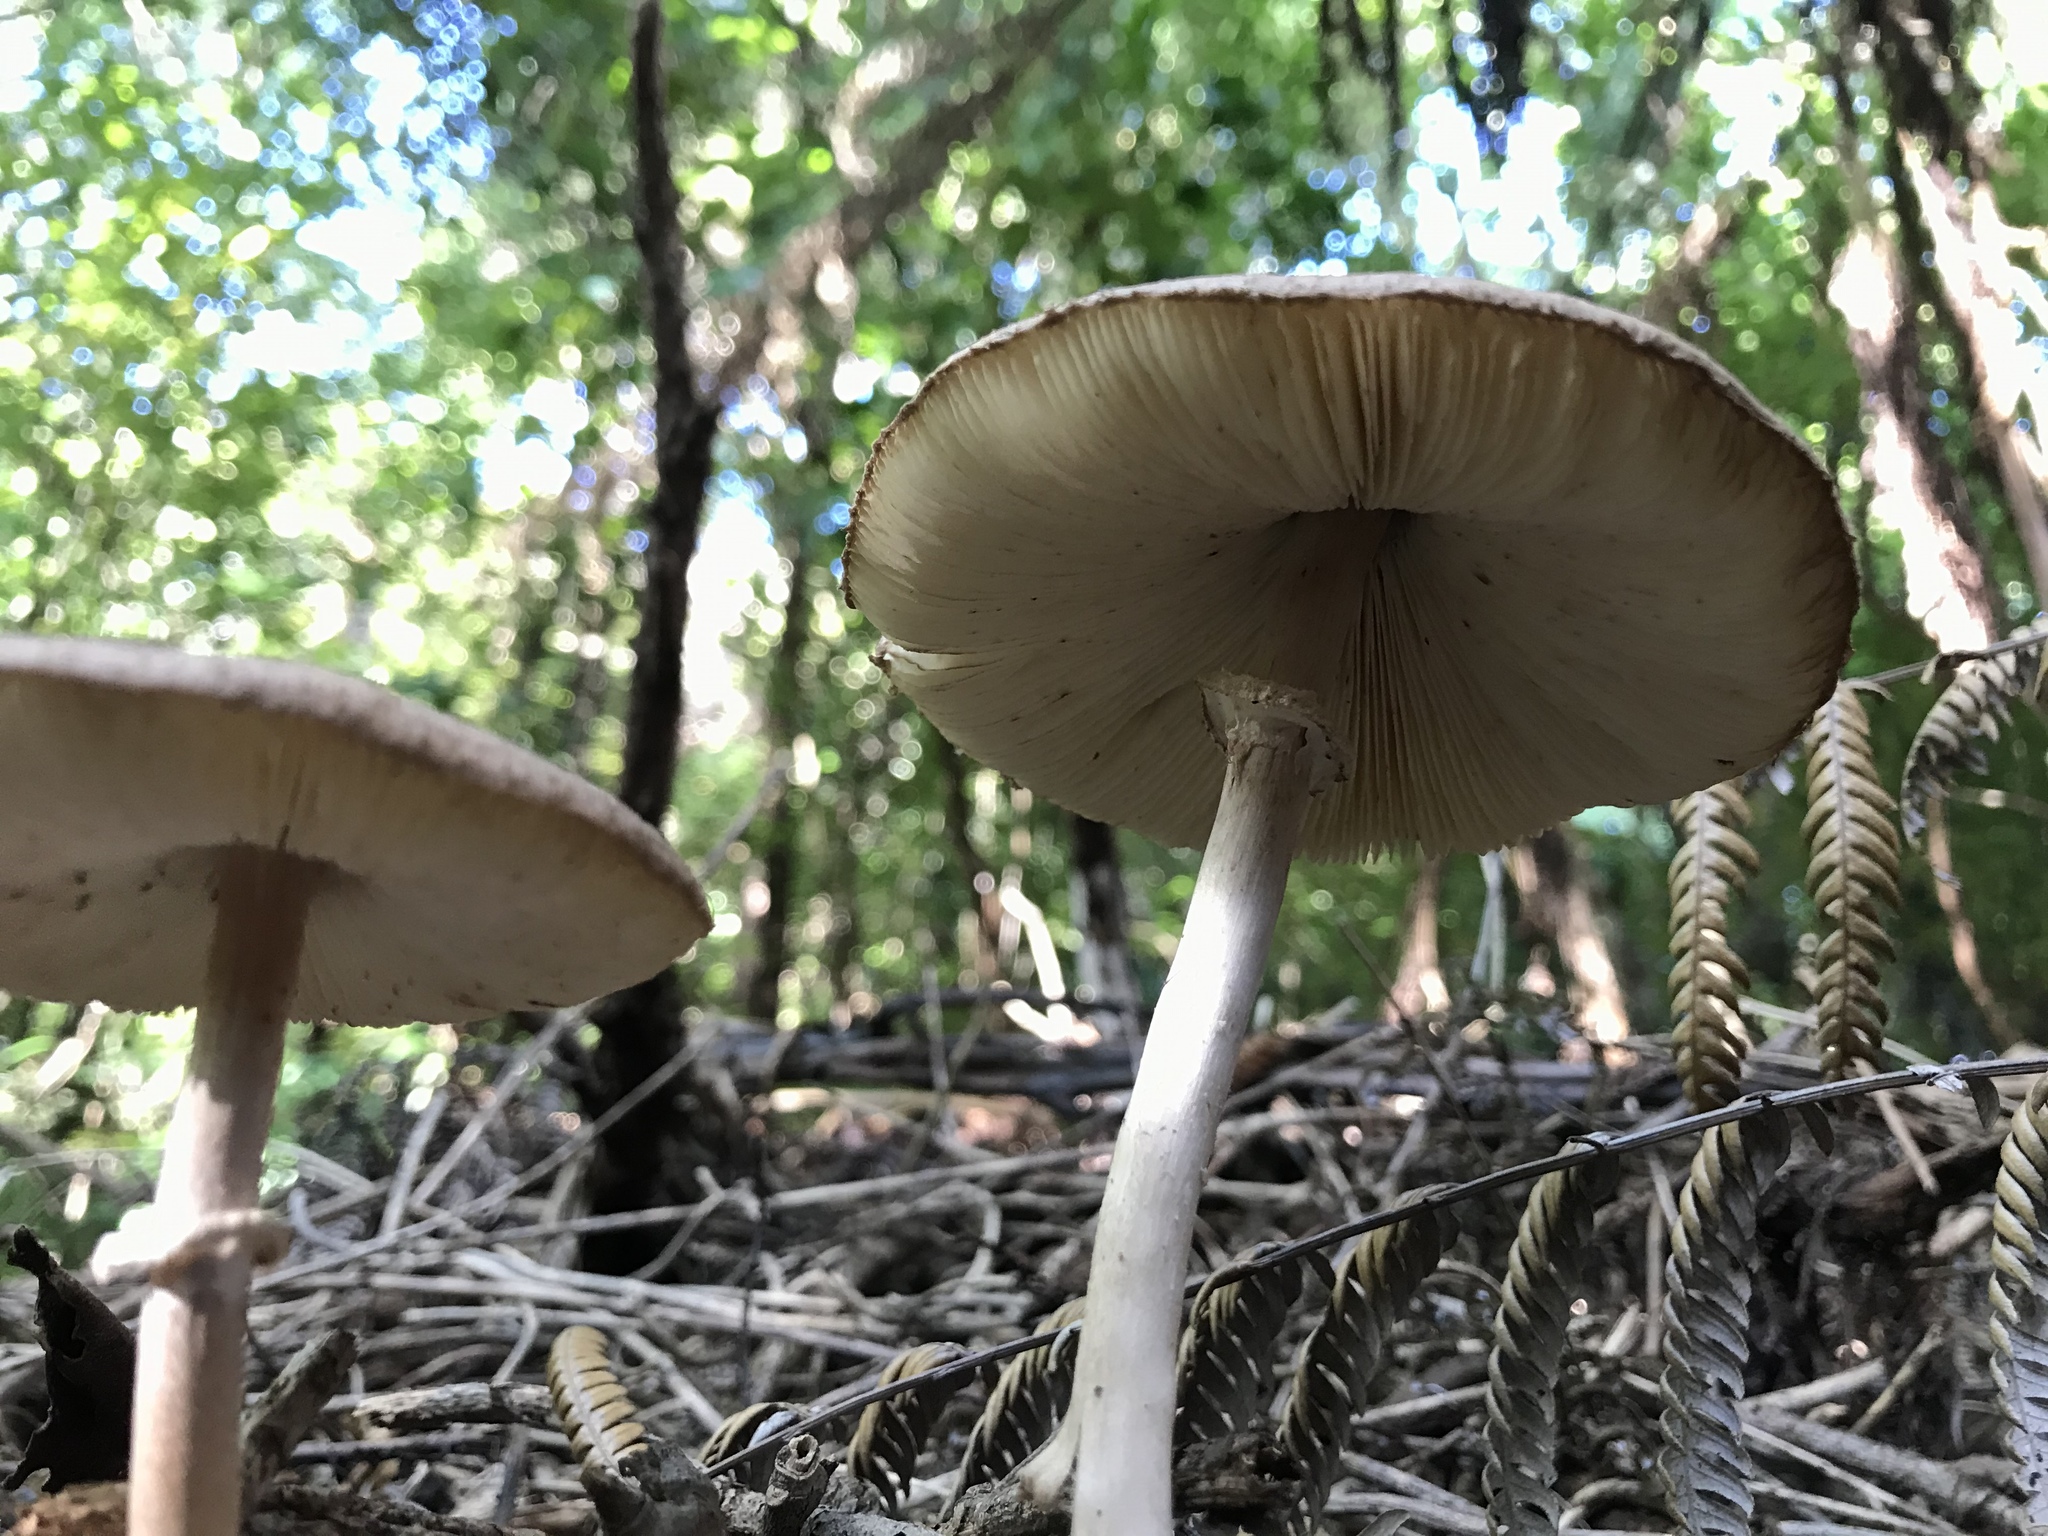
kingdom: Fungi
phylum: Basidiomycota
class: Agaricomycetes
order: Agaricales
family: Agaricaceae
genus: Macrolepiota
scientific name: Macrolepiota clelandii
